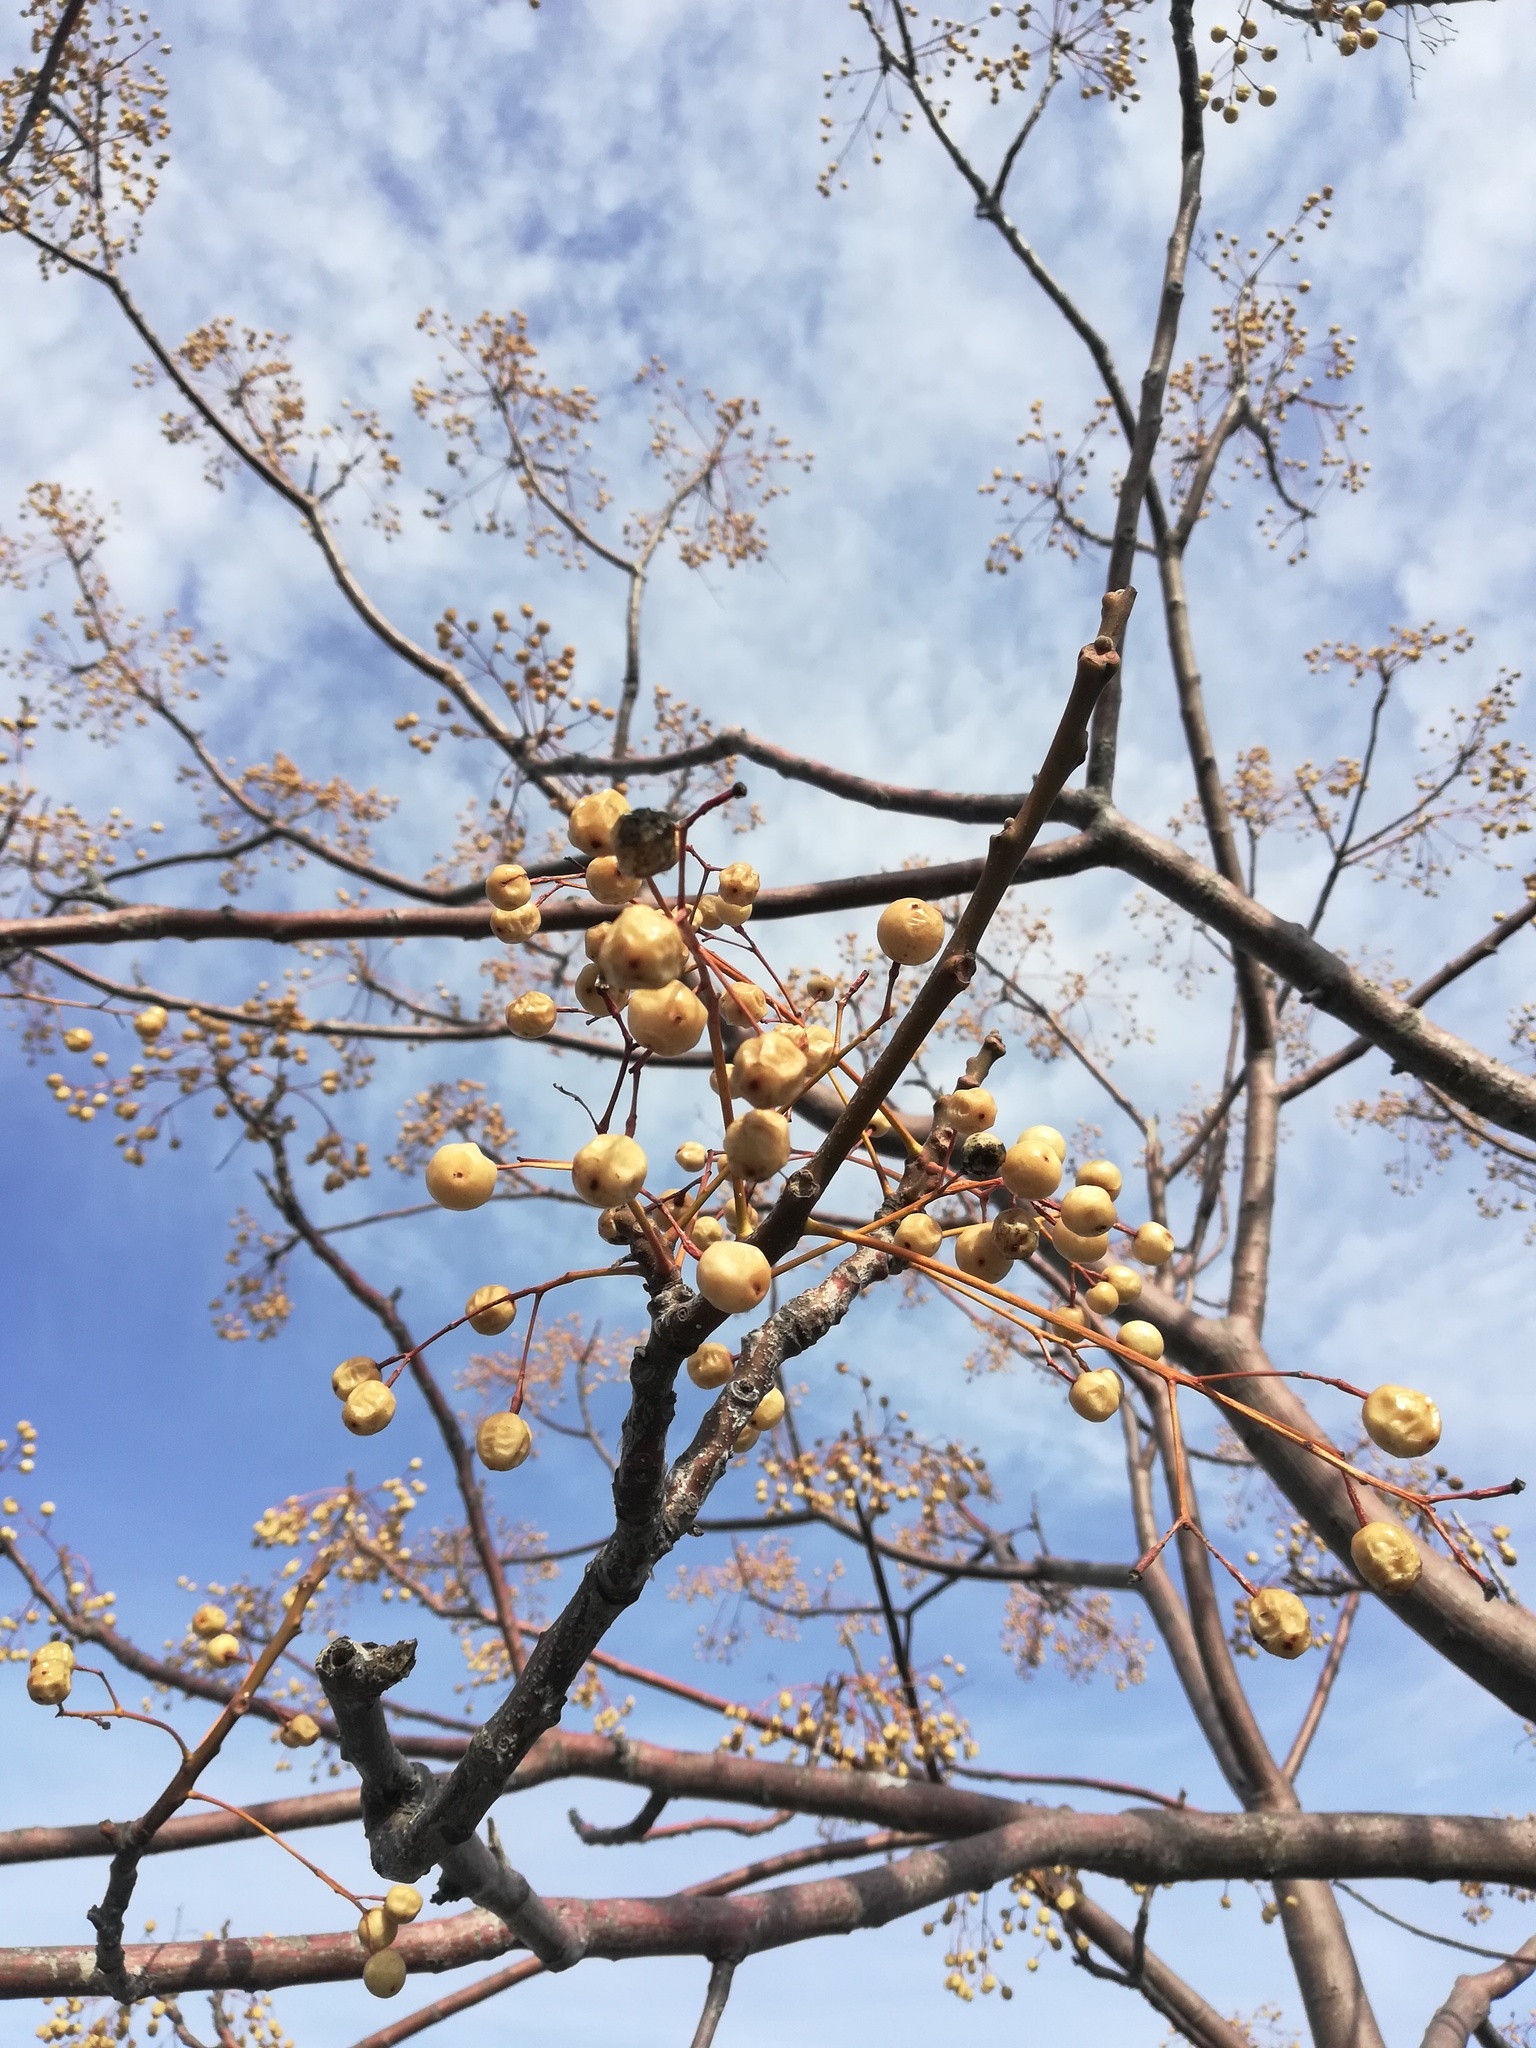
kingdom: Plantae
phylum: Tracheophyta
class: Magnoliopsida
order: Sapindales
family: Meliaceae
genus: Melia
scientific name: Melia azedarach
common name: Chinaberrytree
